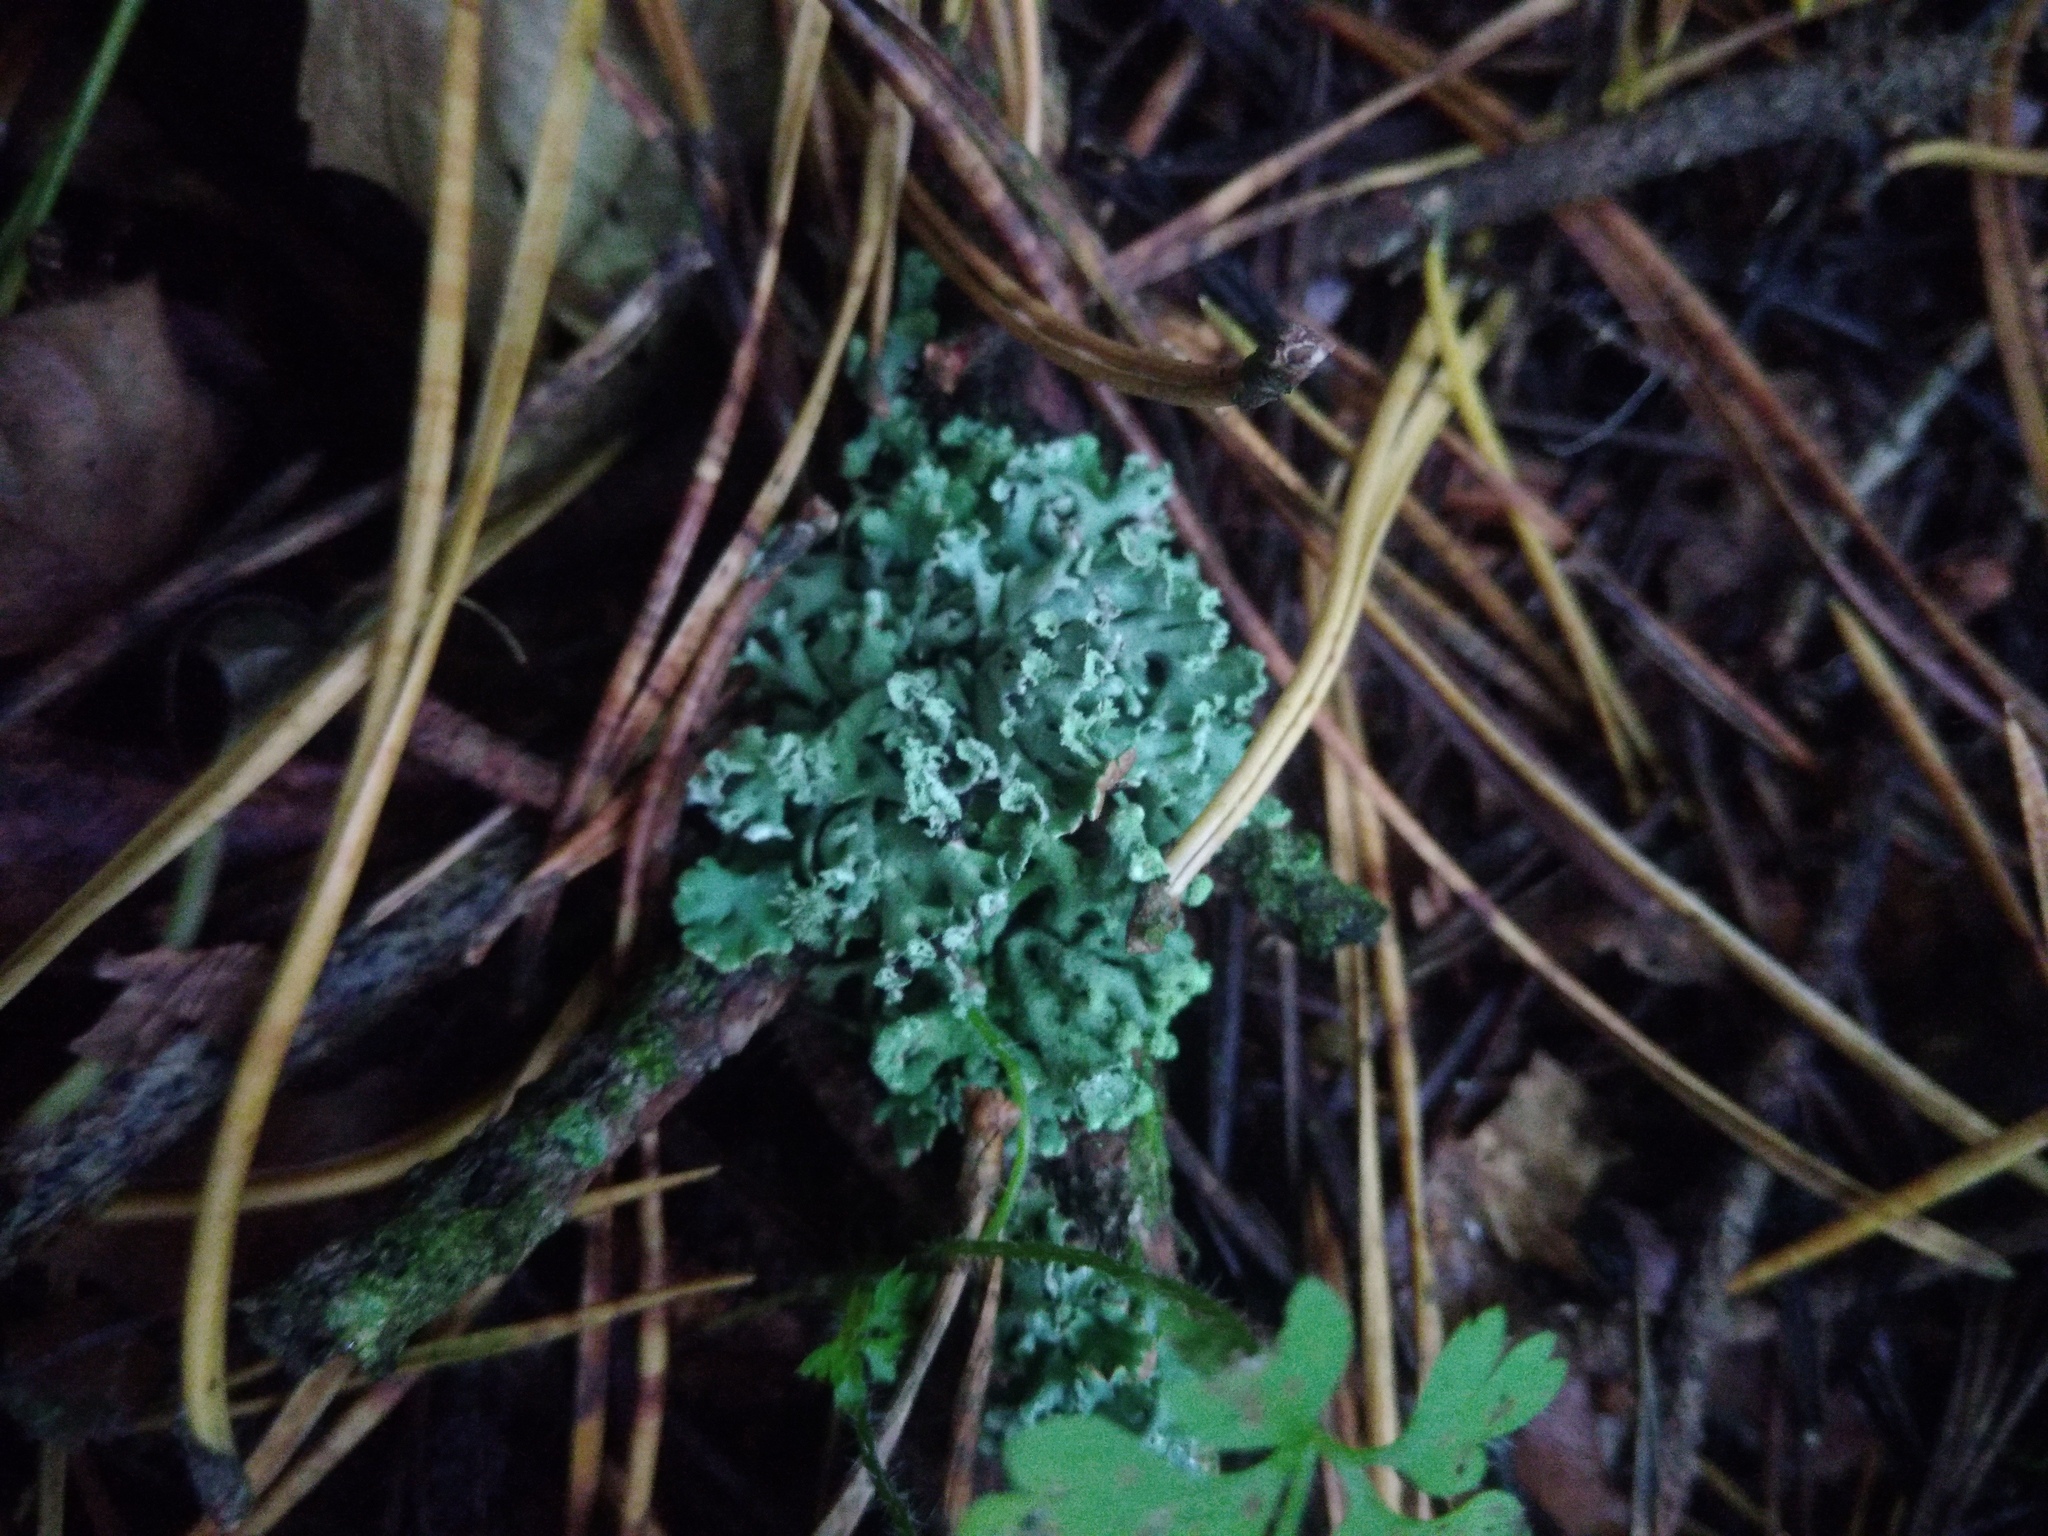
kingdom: Fungi
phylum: Ascomycota
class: Lecanoromycetes
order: Lecanorales
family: Parmeliaceae
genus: Hypogymnia
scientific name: Hypogymnia physodes
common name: Dark crottle
